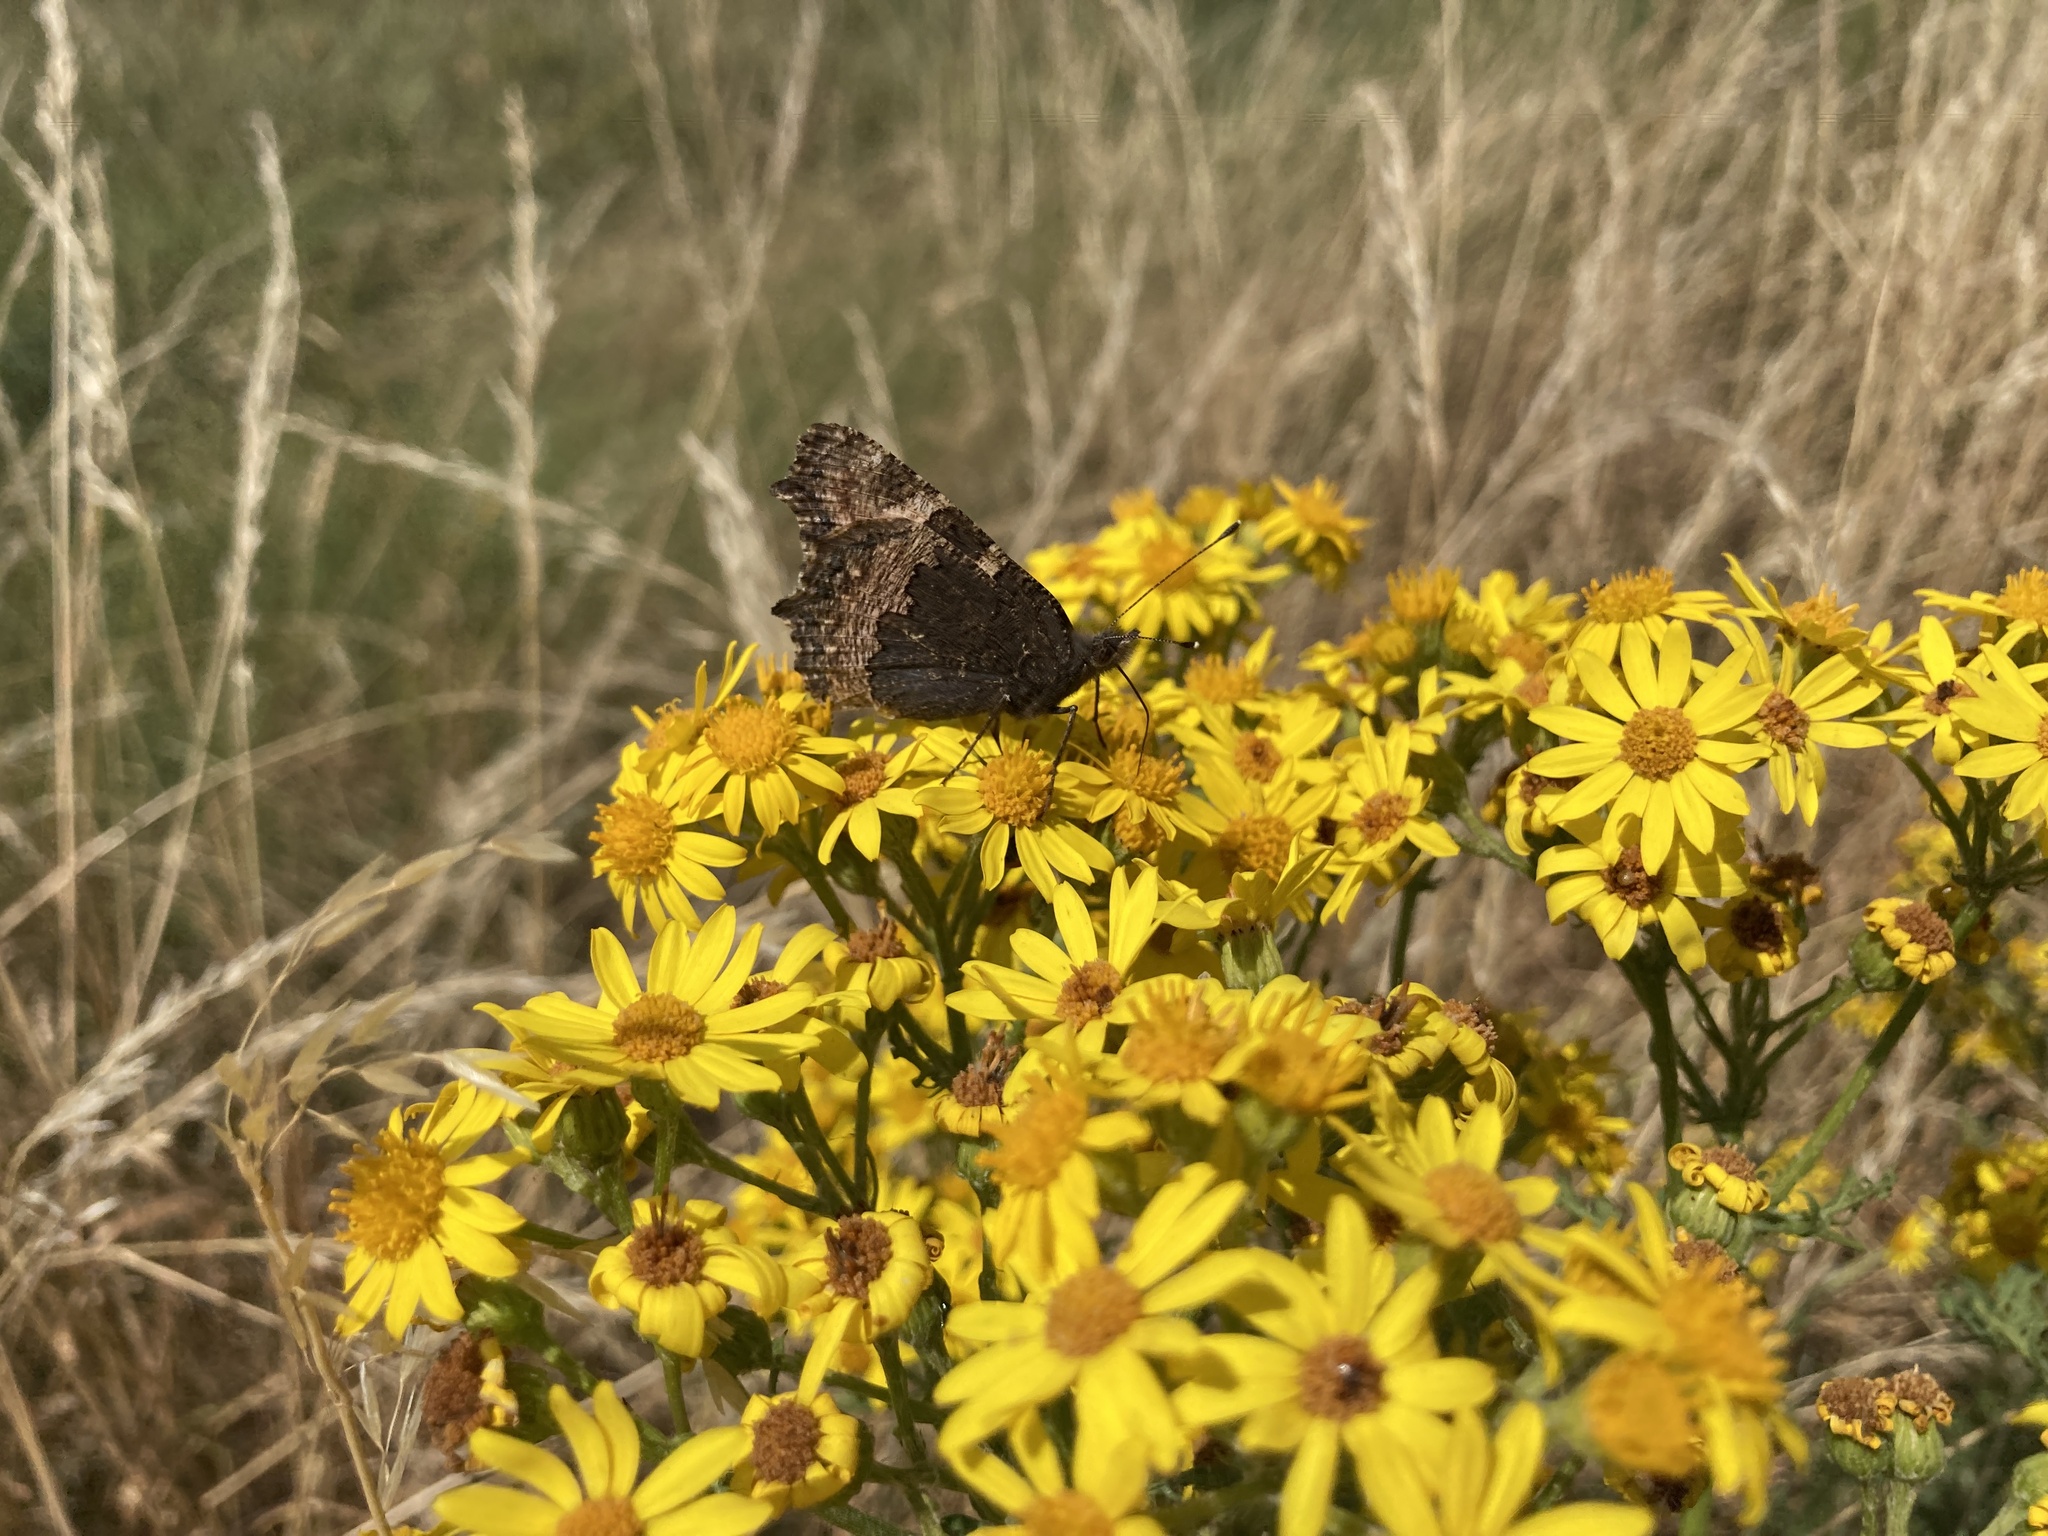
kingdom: Animalia
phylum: Arthropoda
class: Insecta
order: Lepidoptera
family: Nymphalidae
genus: Aglais
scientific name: Aglais urticae
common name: Small tortoiseshell
